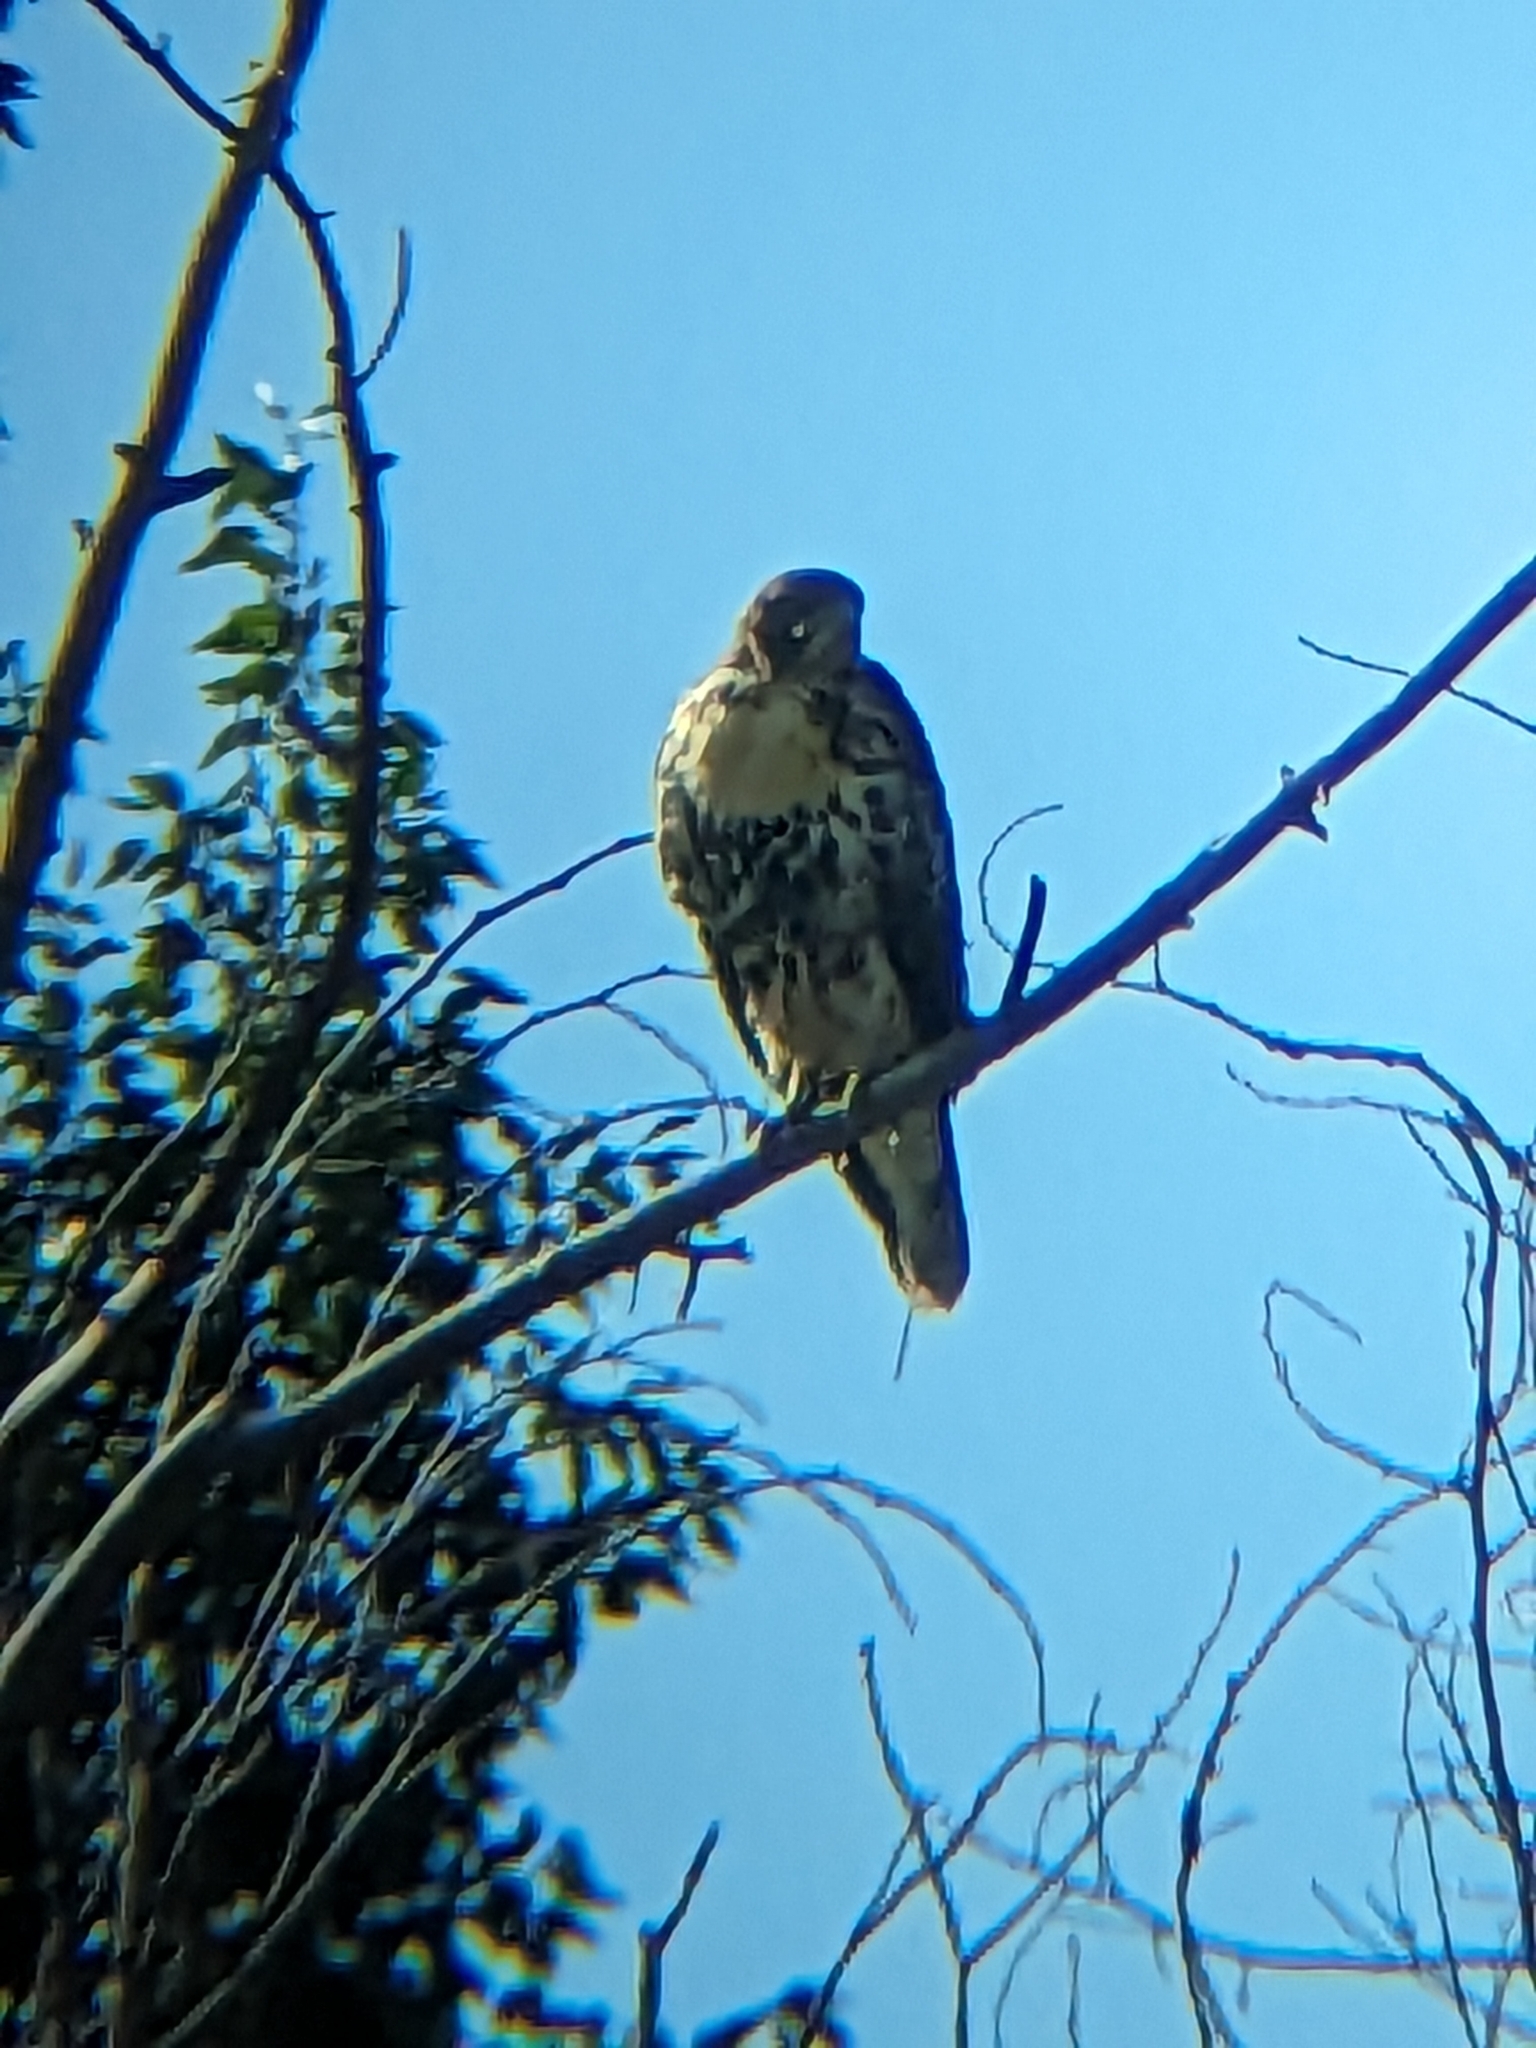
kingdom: Animalia
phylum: Chordata
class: Aves
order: Accipitriformes
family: Accipitridae
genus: Buteo
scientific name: Buteo jamaicensis
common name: Red-tailed hawk
